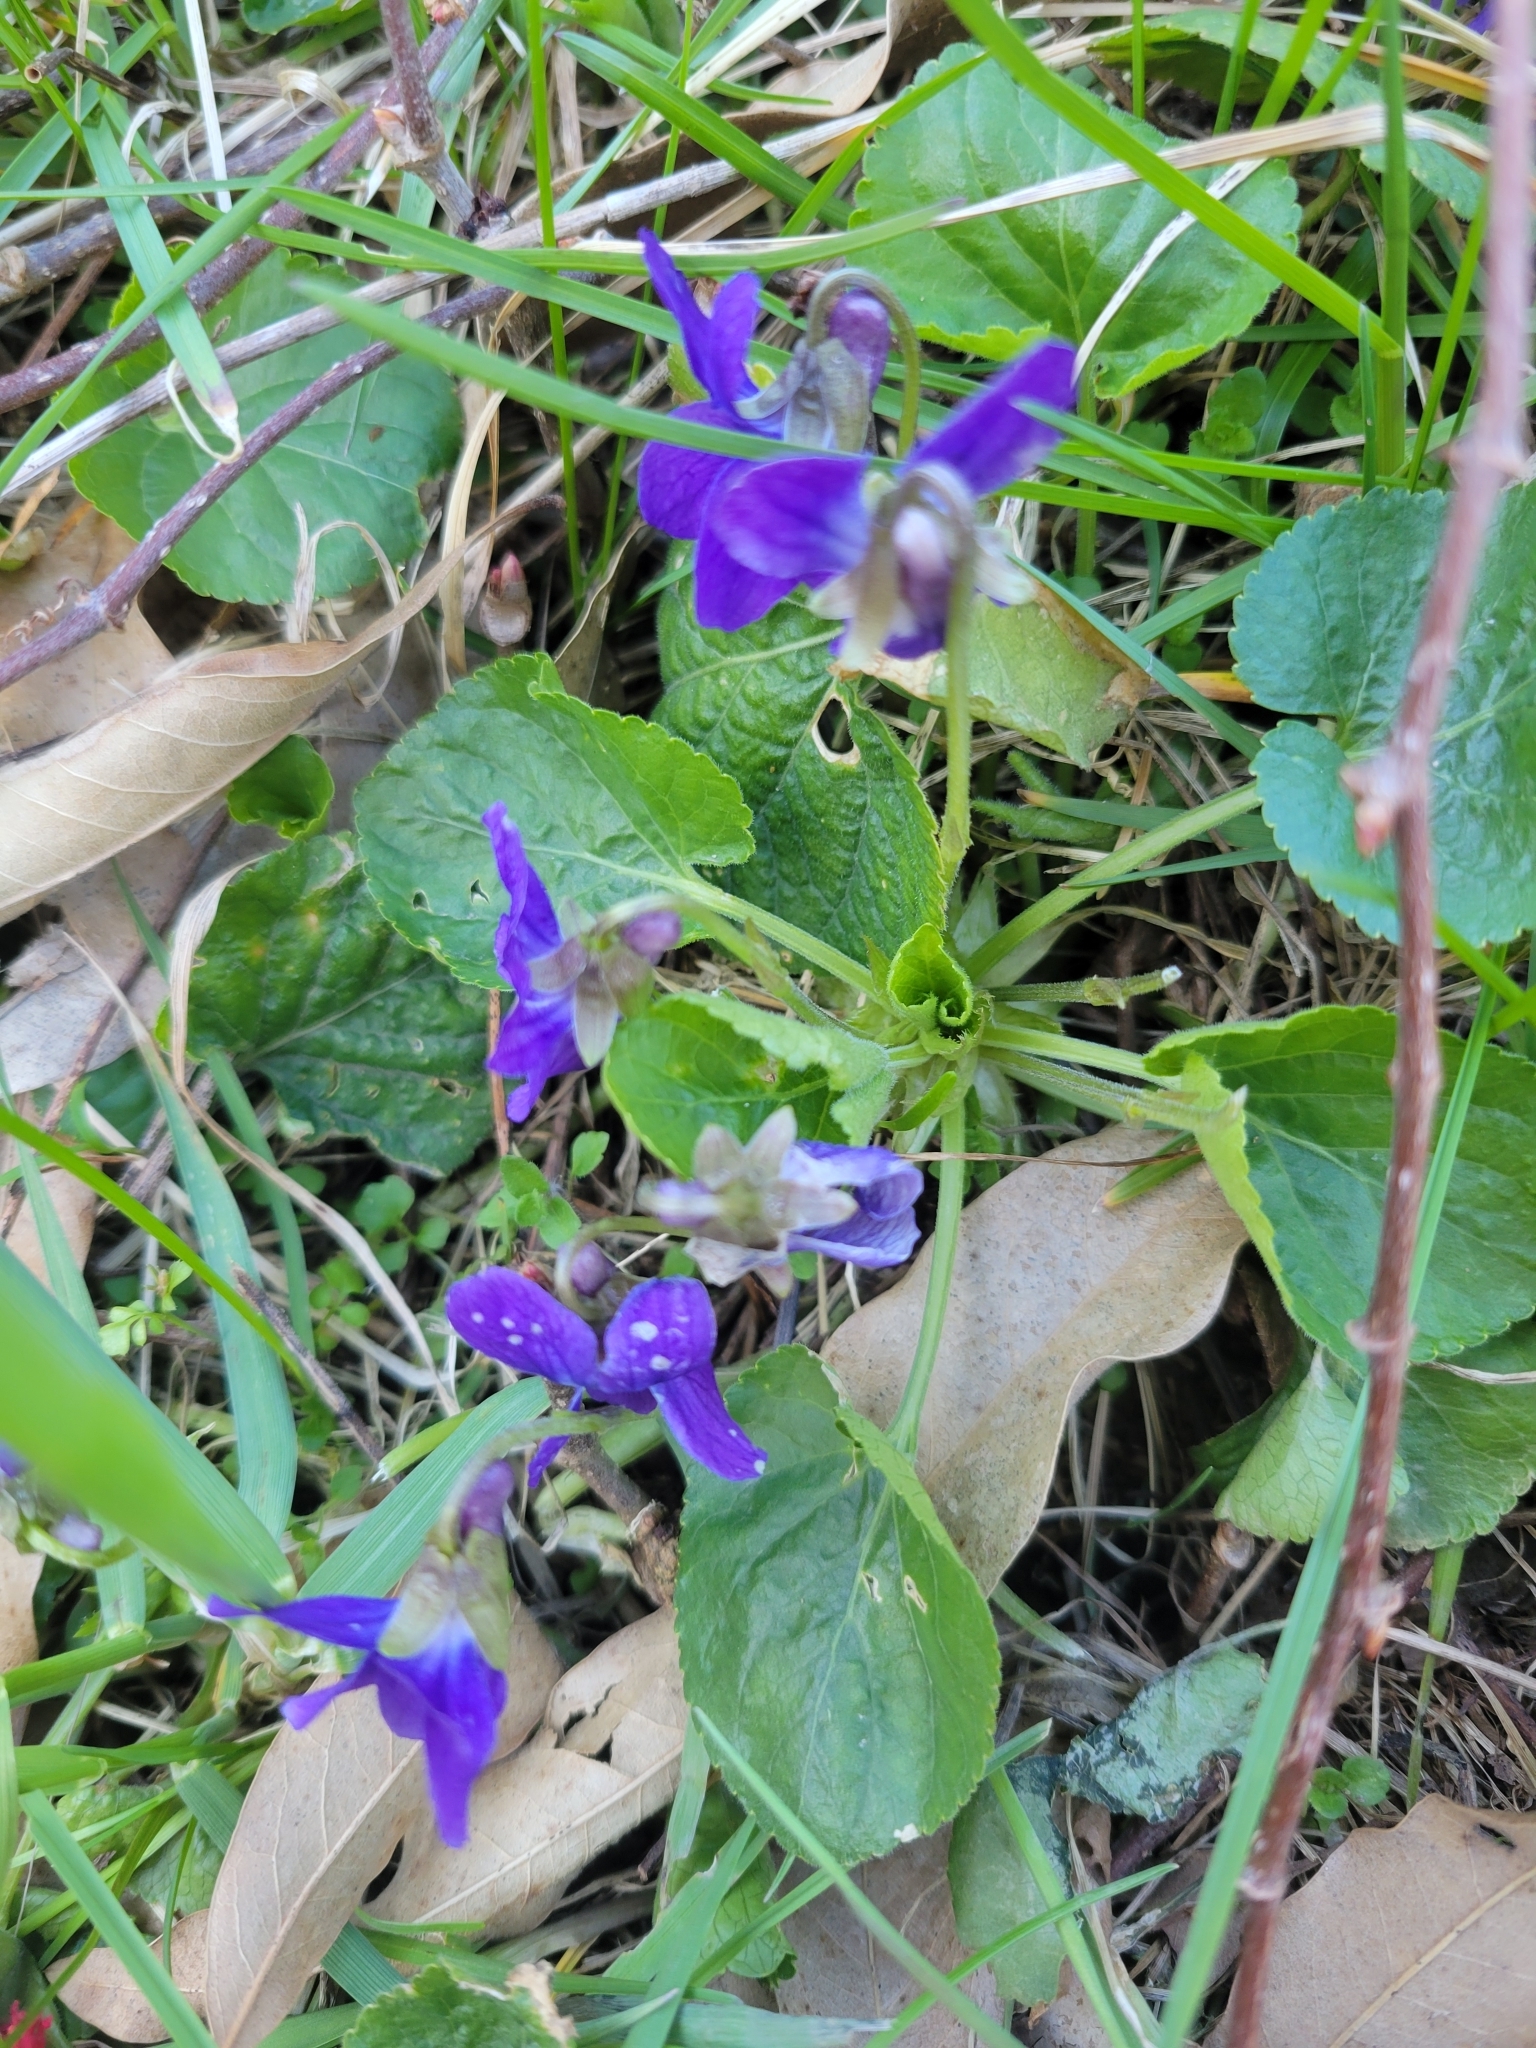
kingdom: Plantae
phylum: Tracheophyta
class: Magnoliopsida
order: Malpighiales
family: Violaceae
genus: Viola
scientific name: Viola odorata
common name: Sweet violet
